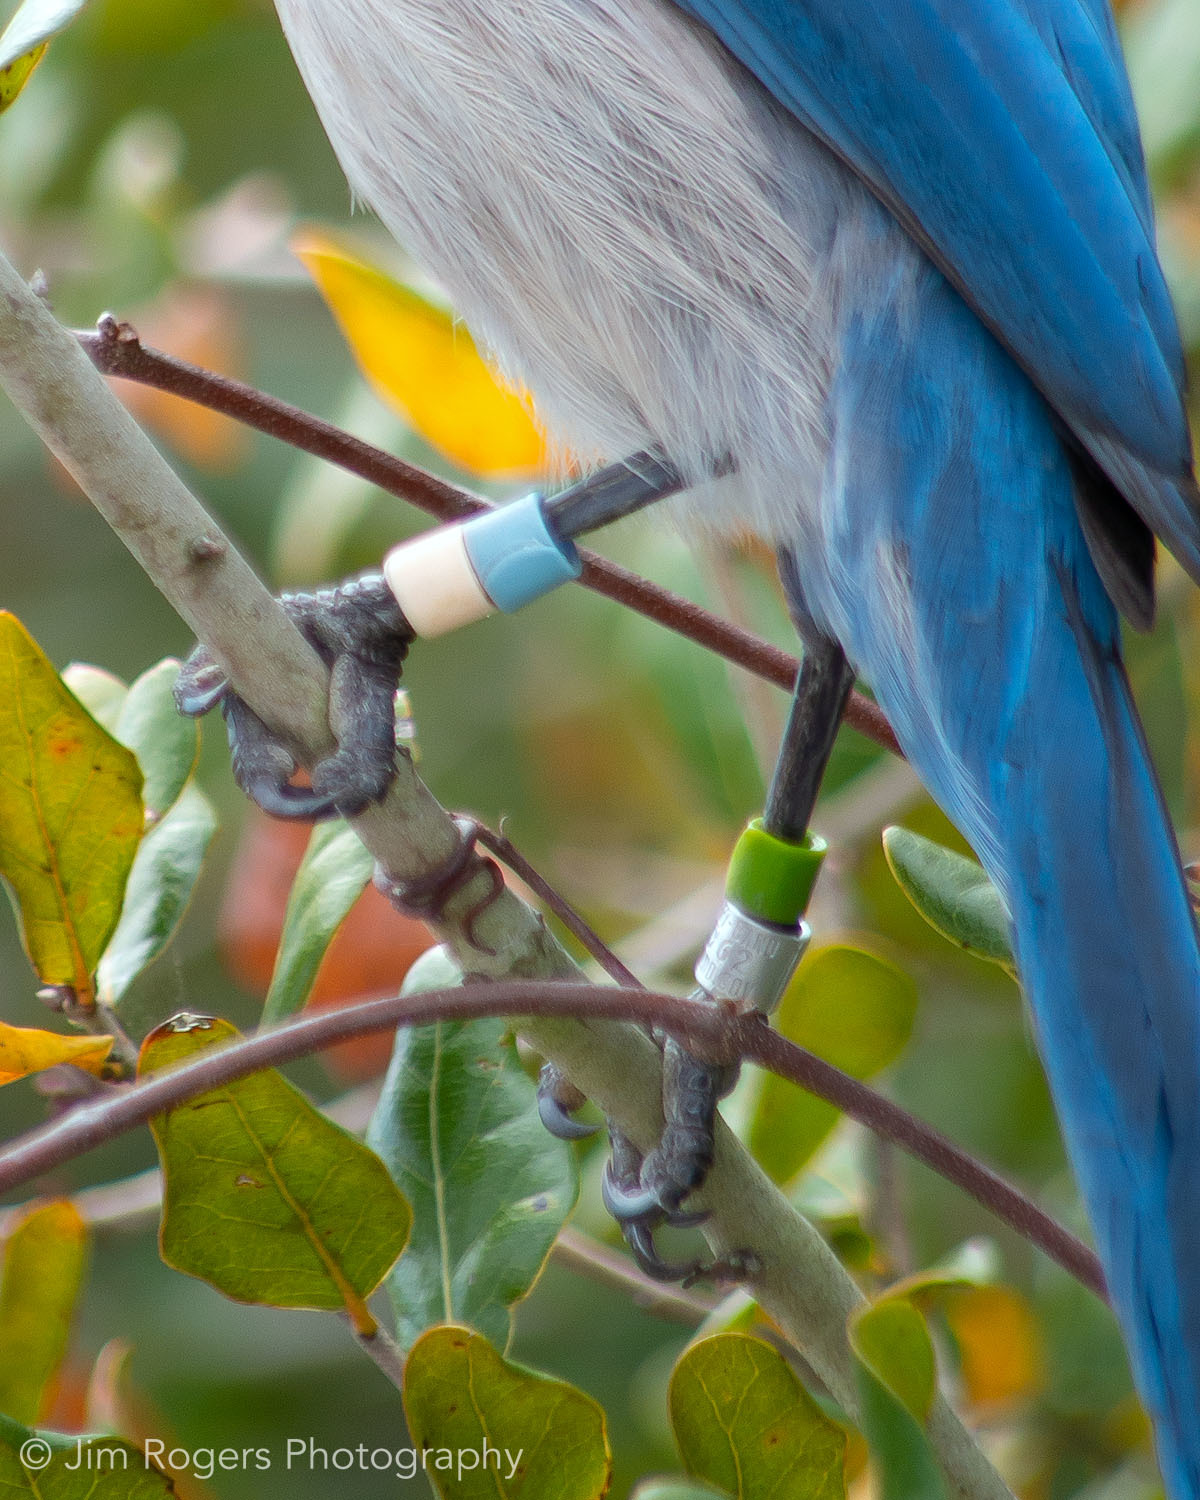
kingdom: Animalia
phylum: Chordata
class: Aves
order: Passeriformes
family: Corvidae
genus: Aphelocoma
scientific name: Aphelocoma coerulescens
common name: Florida scrub jay
